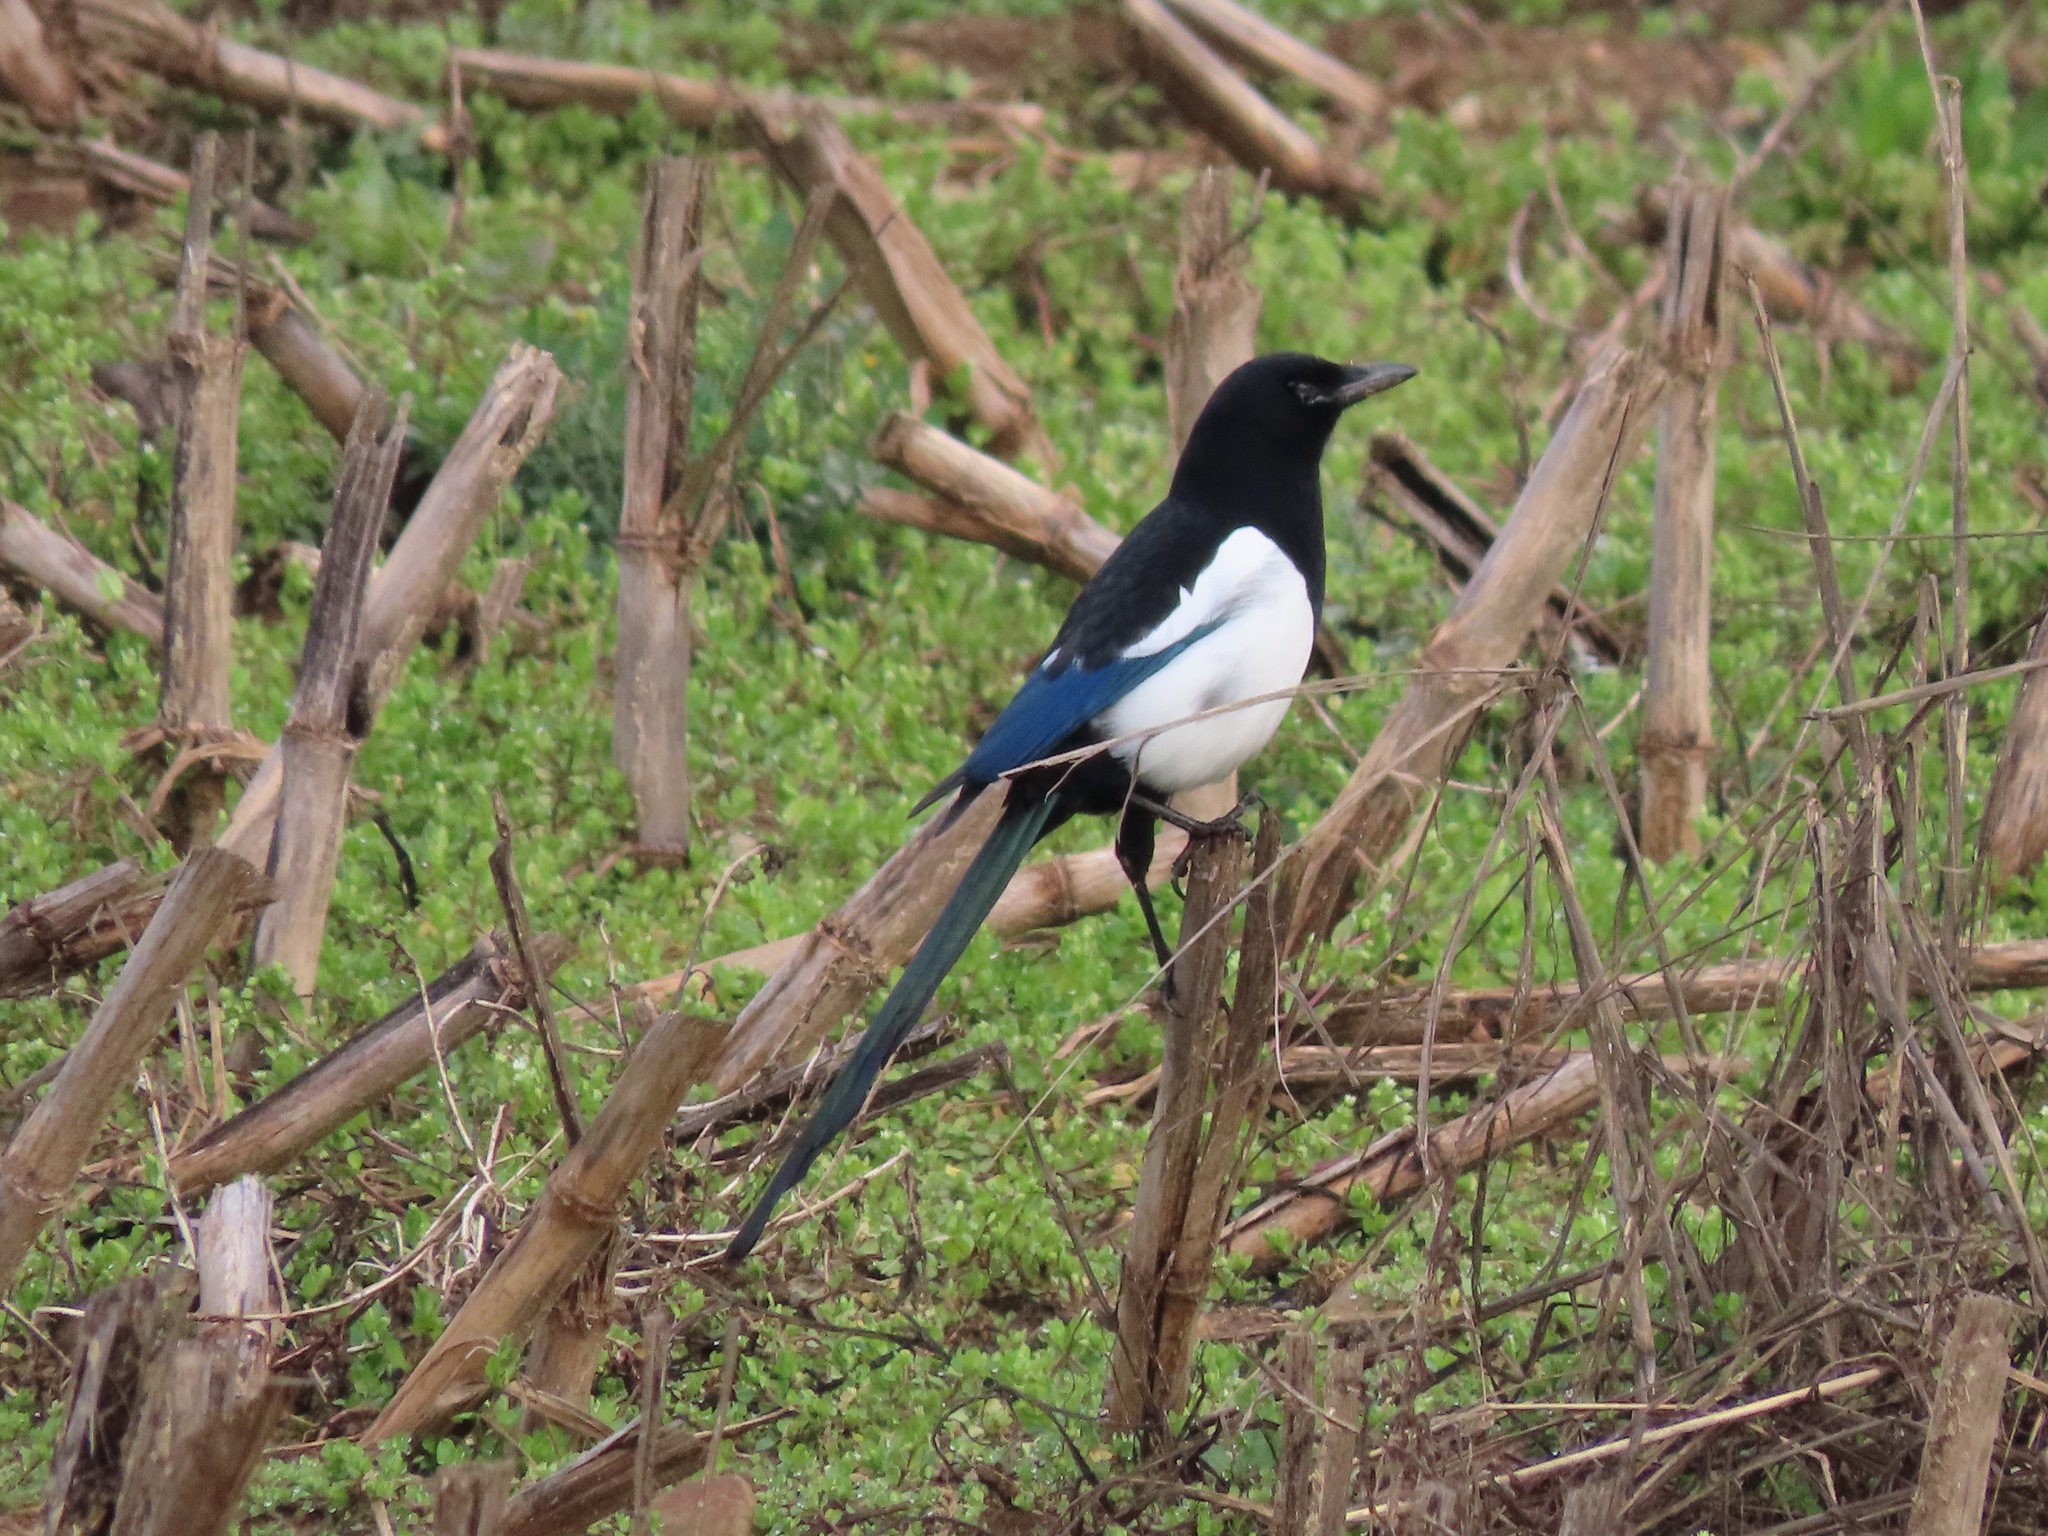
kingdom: Animalia
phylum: Chordata
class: Aves
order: Passeriformes
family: Corvidae
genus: Pica
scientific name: Pica pica
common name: Eurasian magpie
